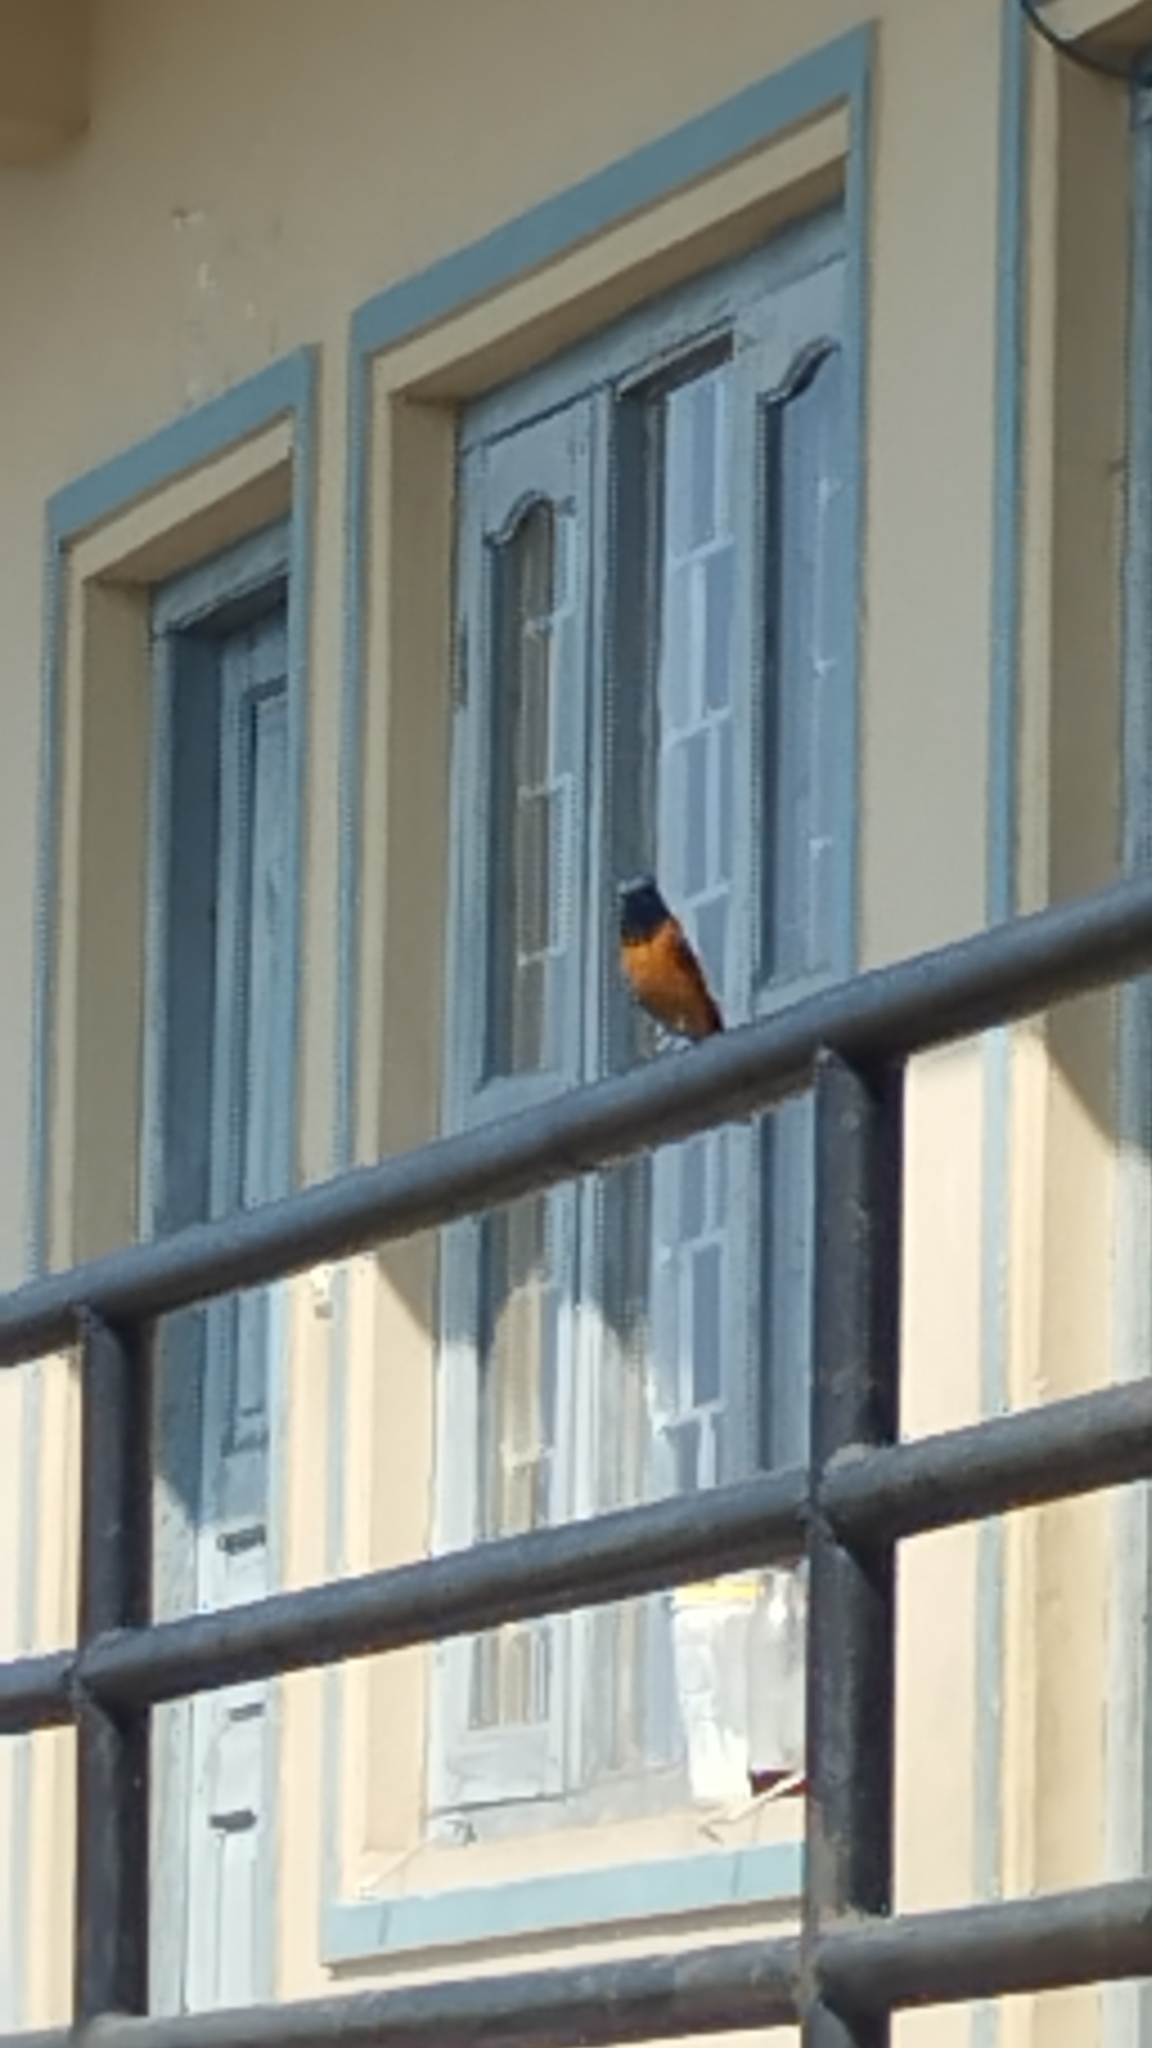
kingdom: Animalia
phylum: Chordata
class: Aves
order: Passeriformes
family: Muscicapidae
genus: Phoenicurus
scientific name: Phoenicurus frontalis
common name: Blue-fronted redstart
